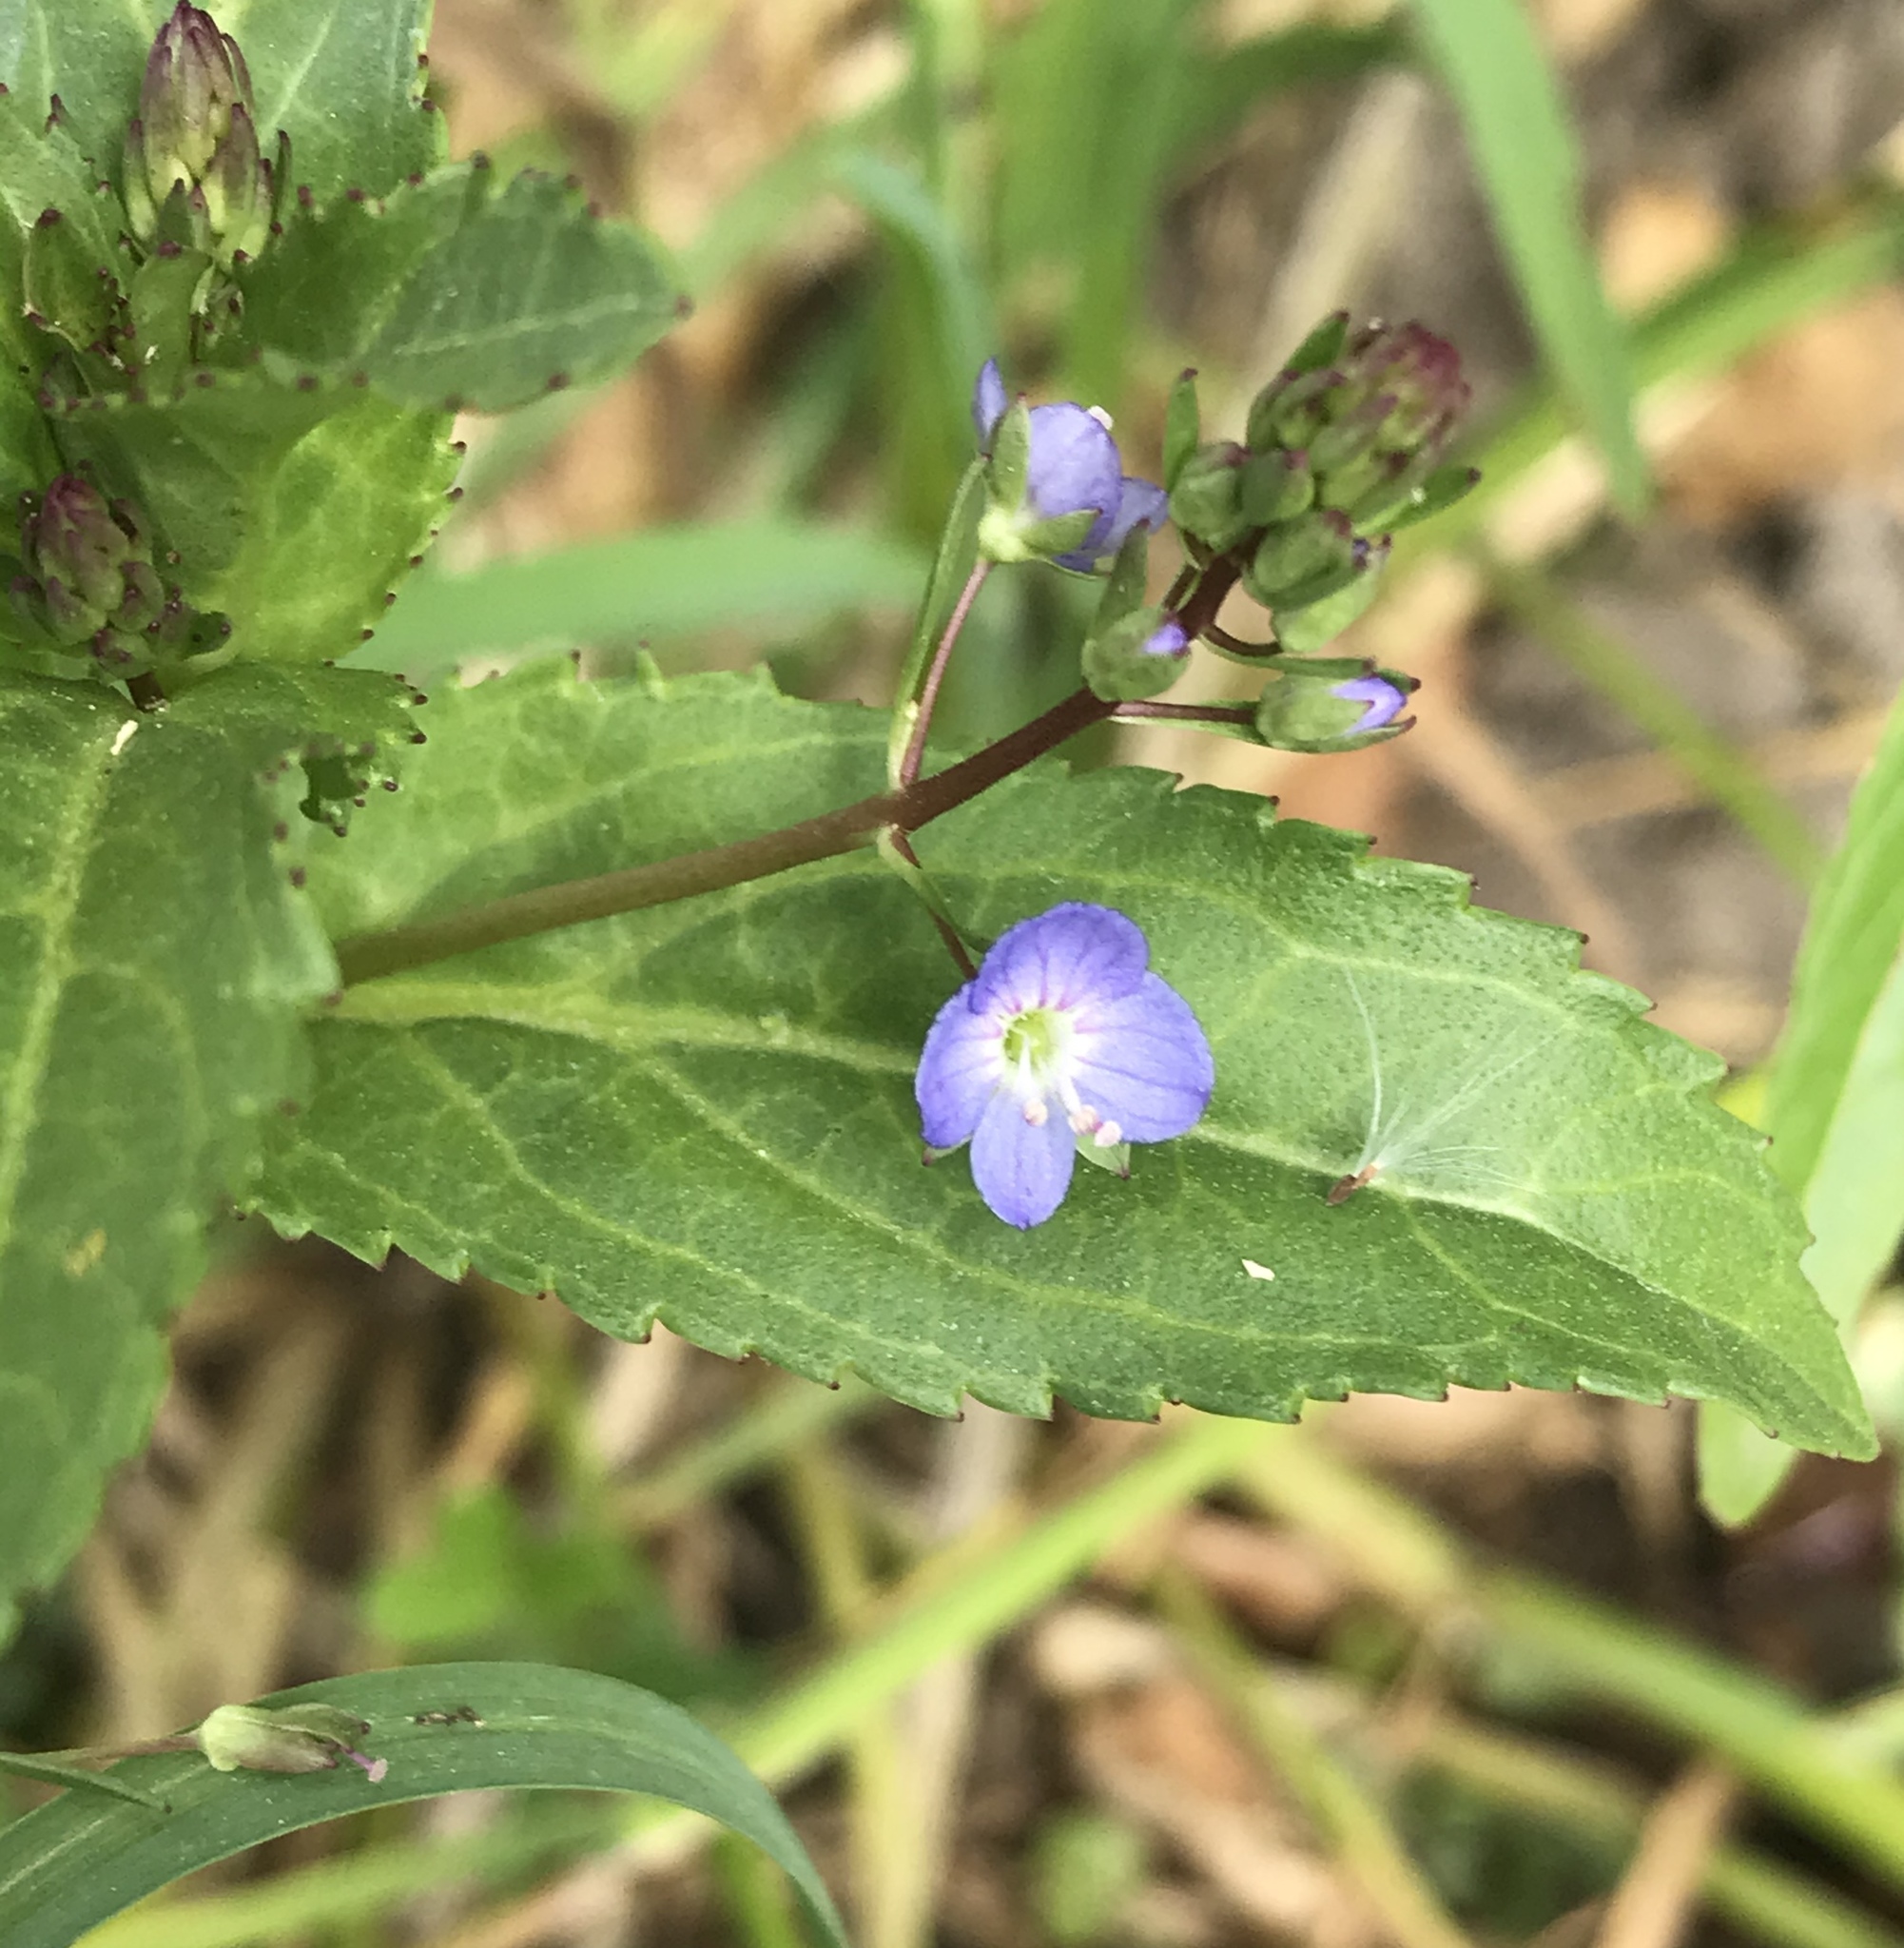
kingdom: Plantae
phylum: Tracheophyta
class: Magnoliopsida
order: Lamiales
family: Plantaginaceae
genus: Veronica
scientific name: Veronica americana
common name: American brooklime
